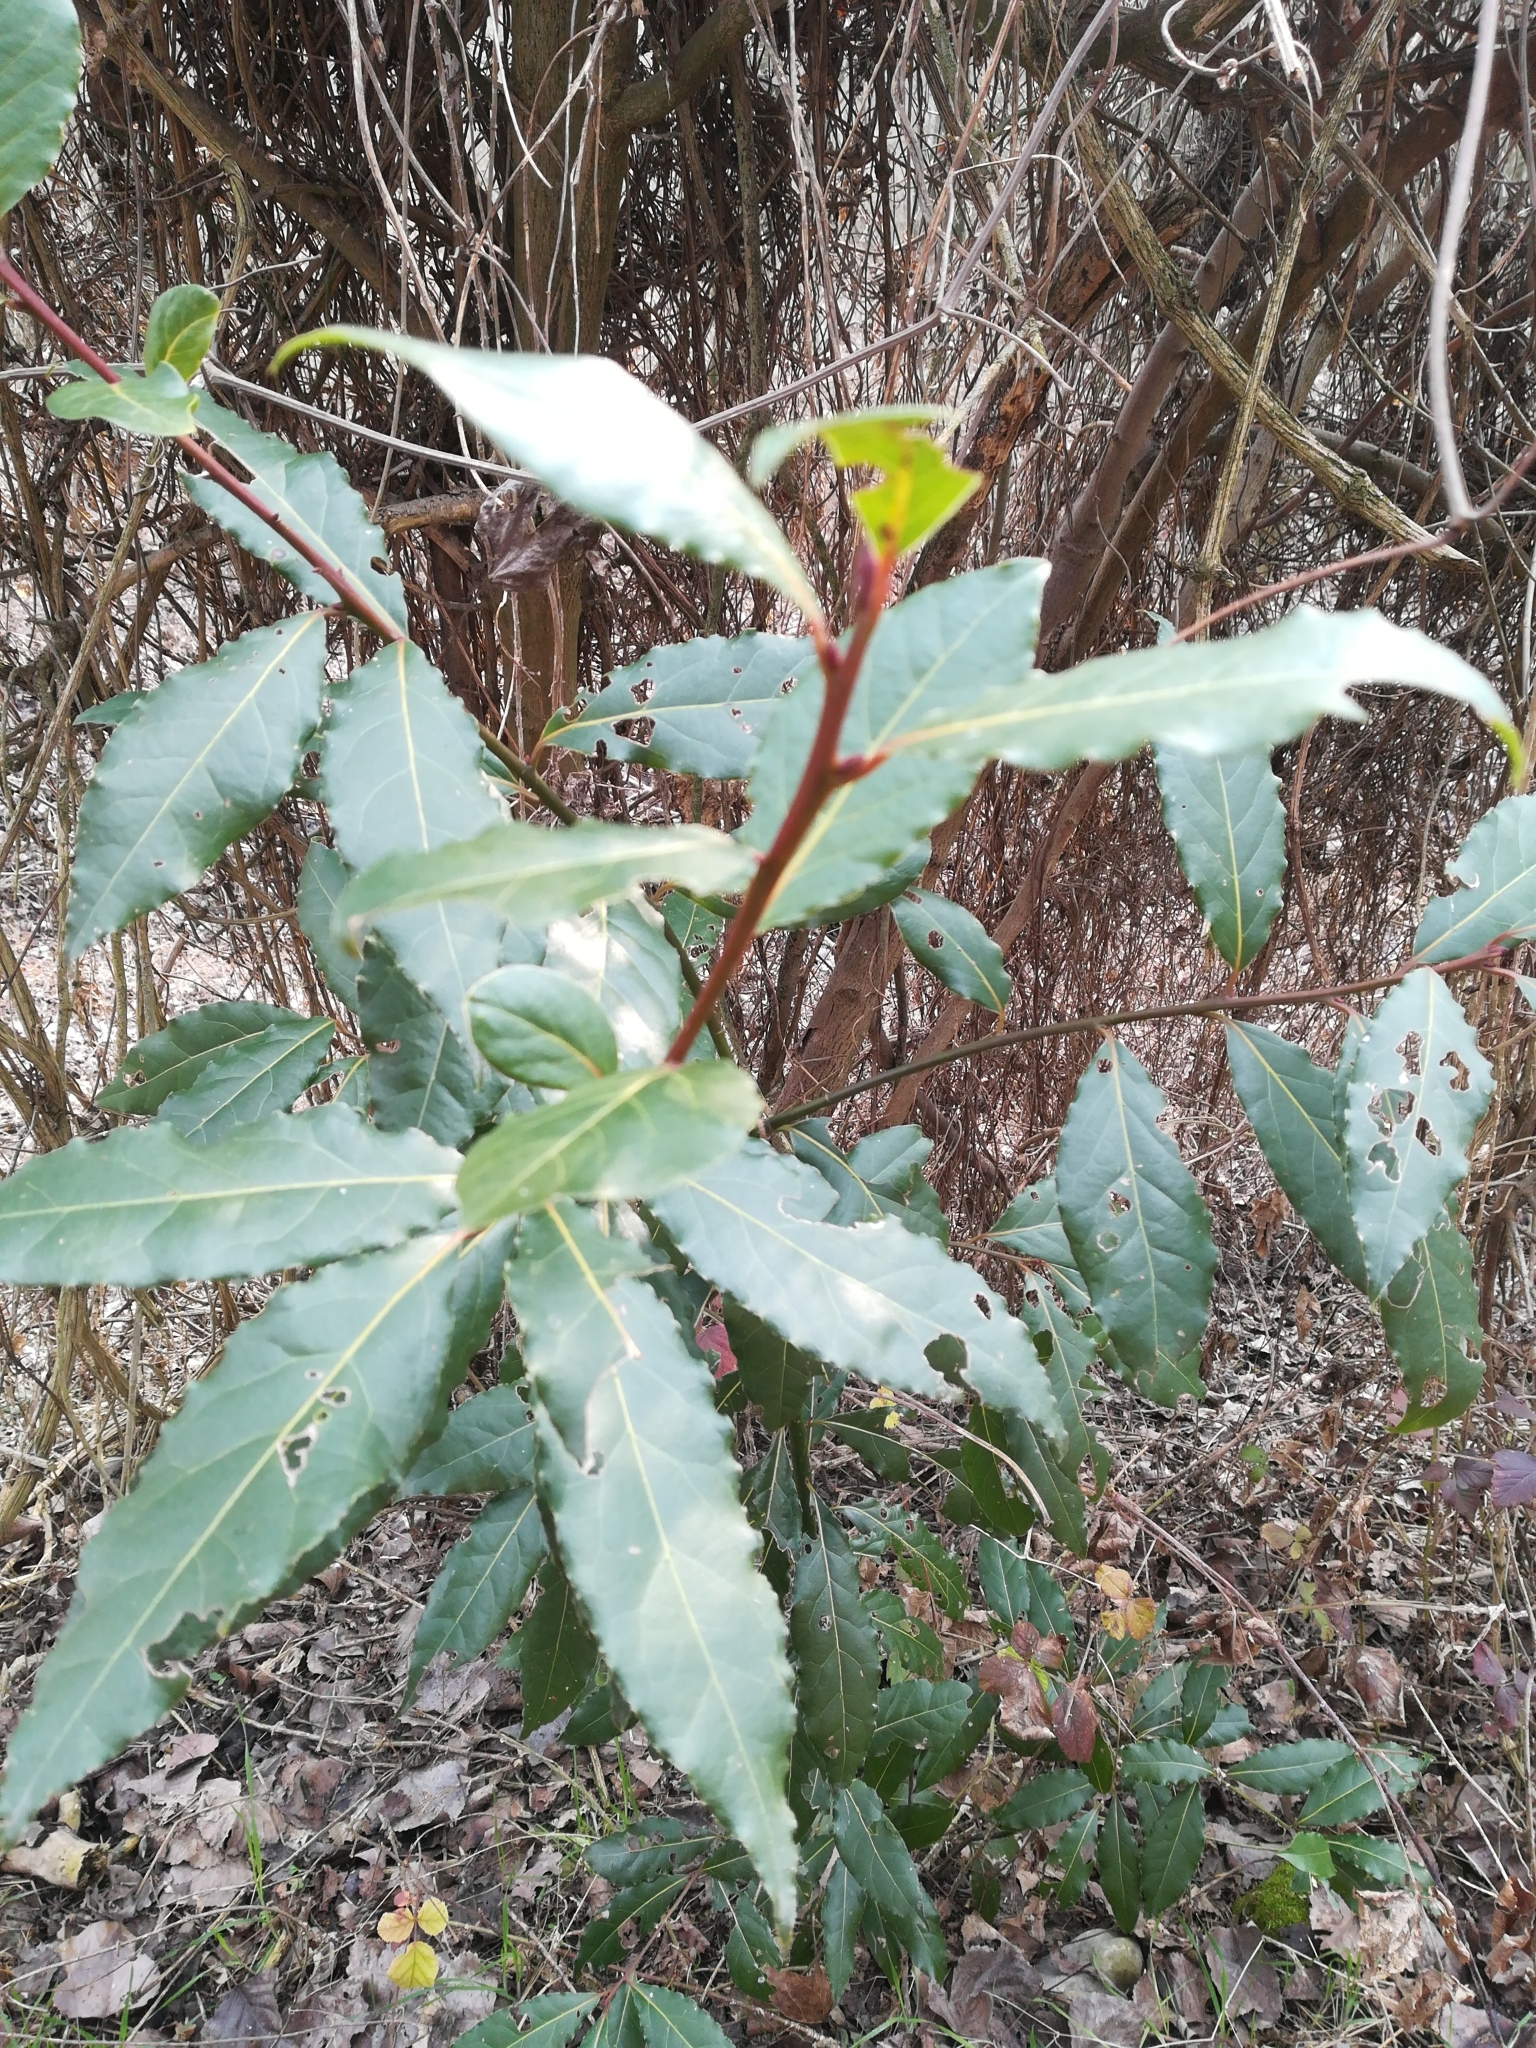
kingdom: Plantae
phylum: Tracheophyta
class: Magnoliopsida
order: Laurales
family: Lauraceae
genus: Laurus
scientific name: Laurus nobilis
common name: Bay
